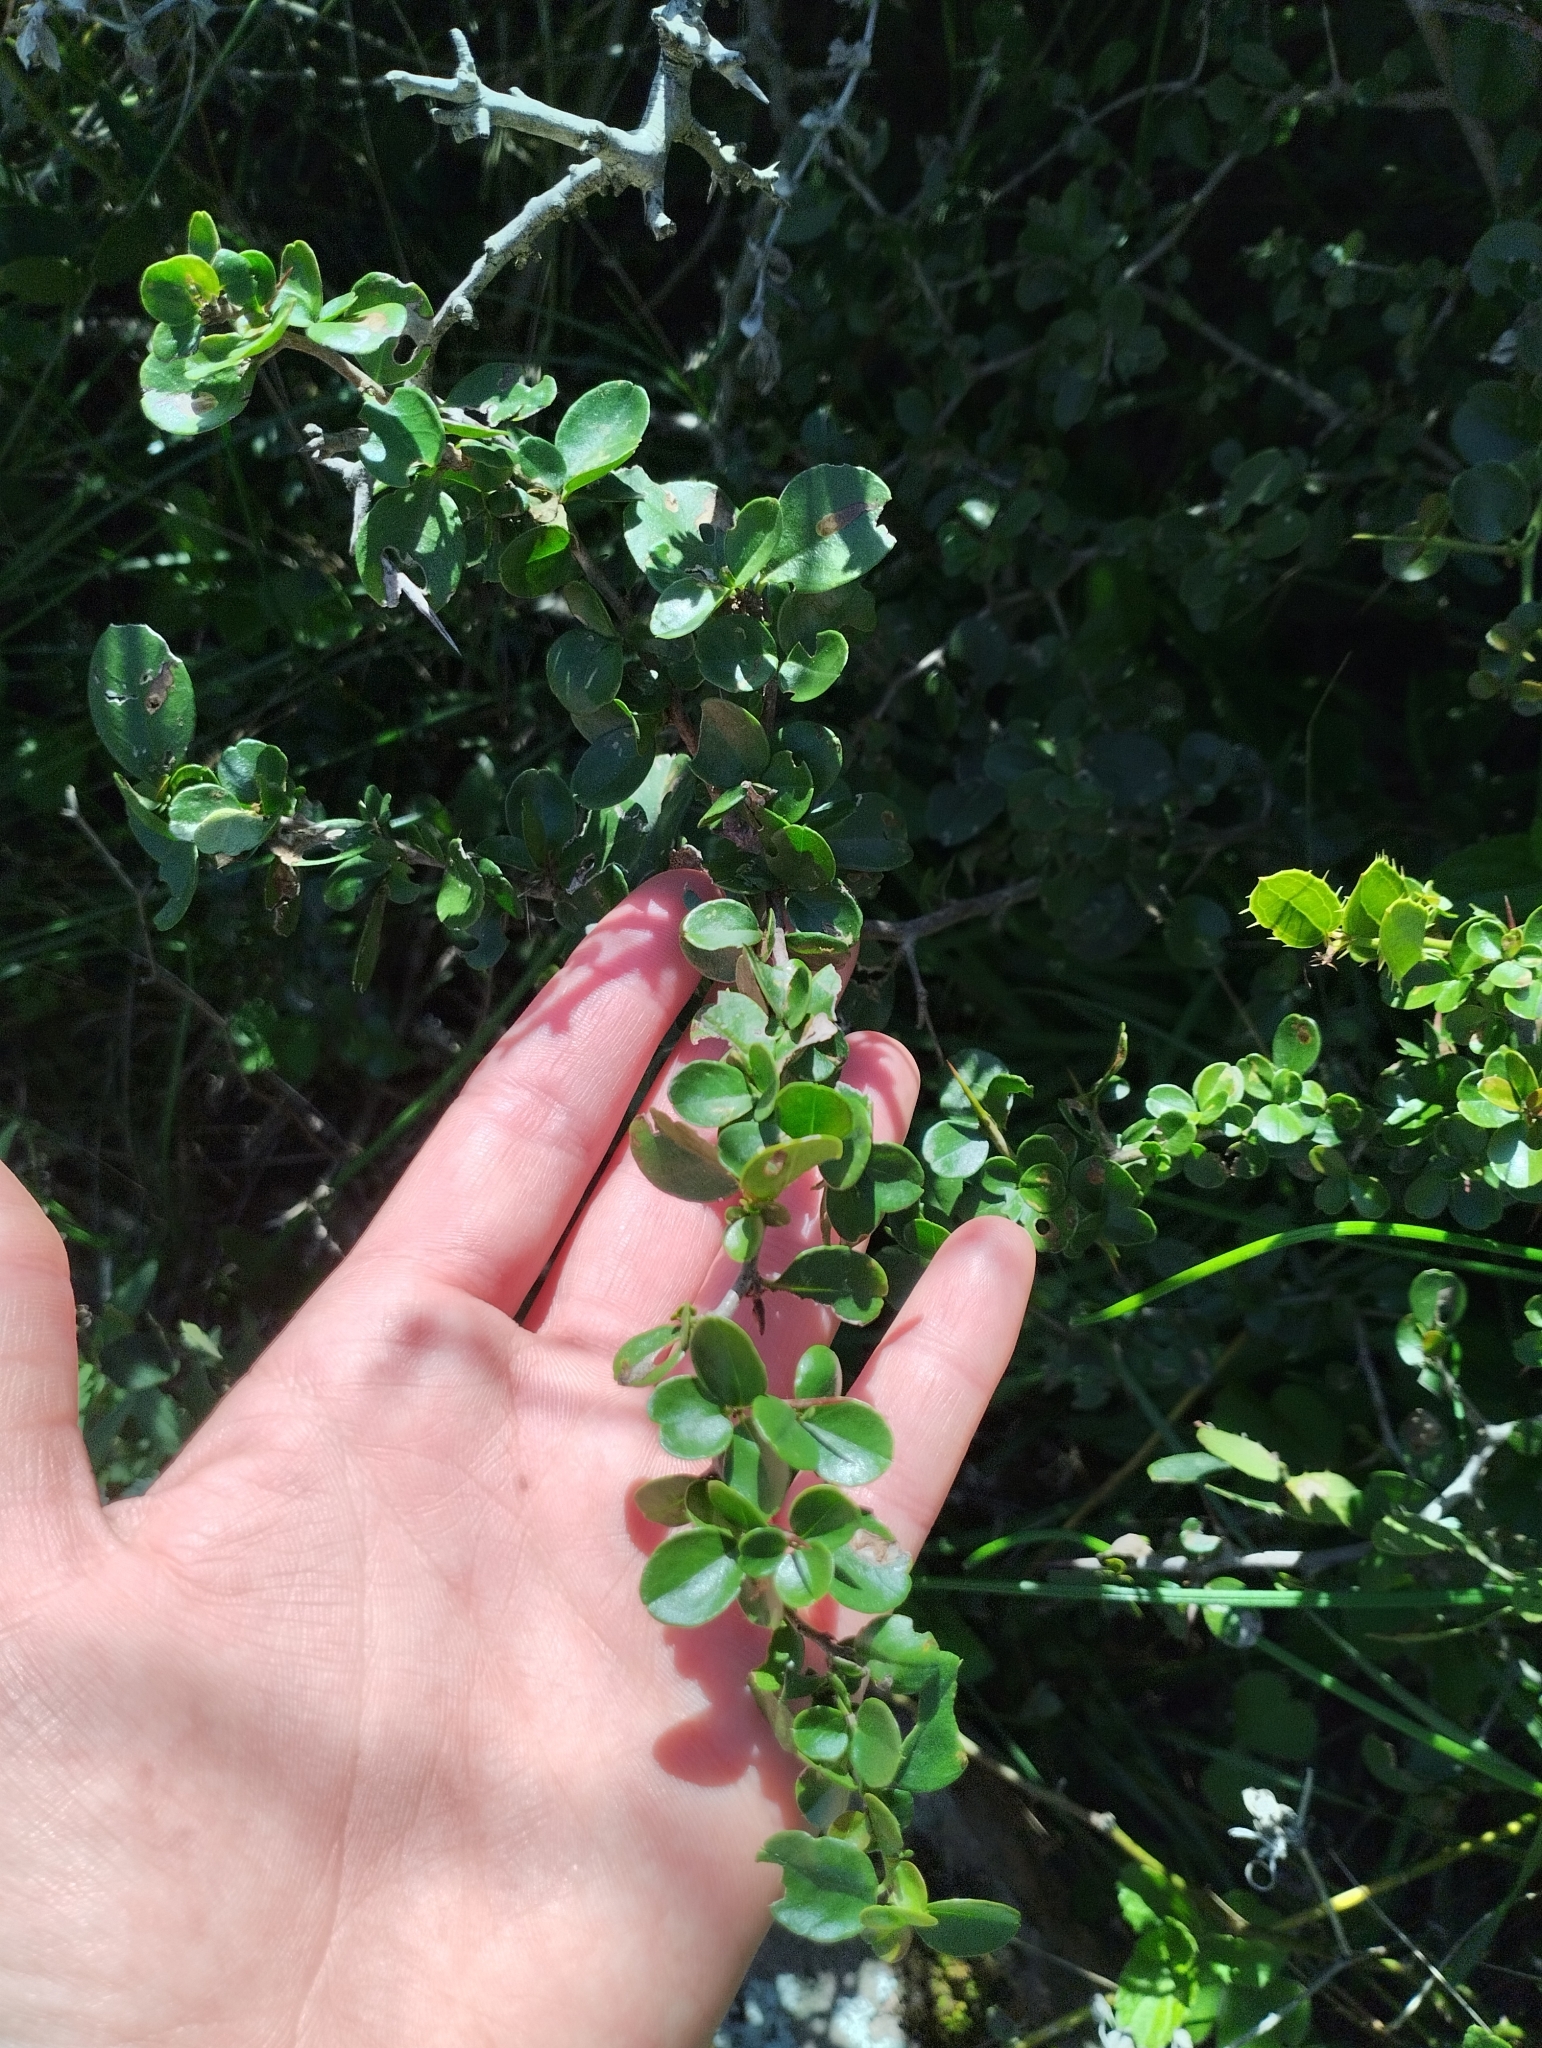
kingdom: Plantae
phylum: Tracheophyta
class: Magnoliopsida
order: Rosales
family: Rhamnaceae
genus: Condalia
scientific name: Condalia buxifolia
